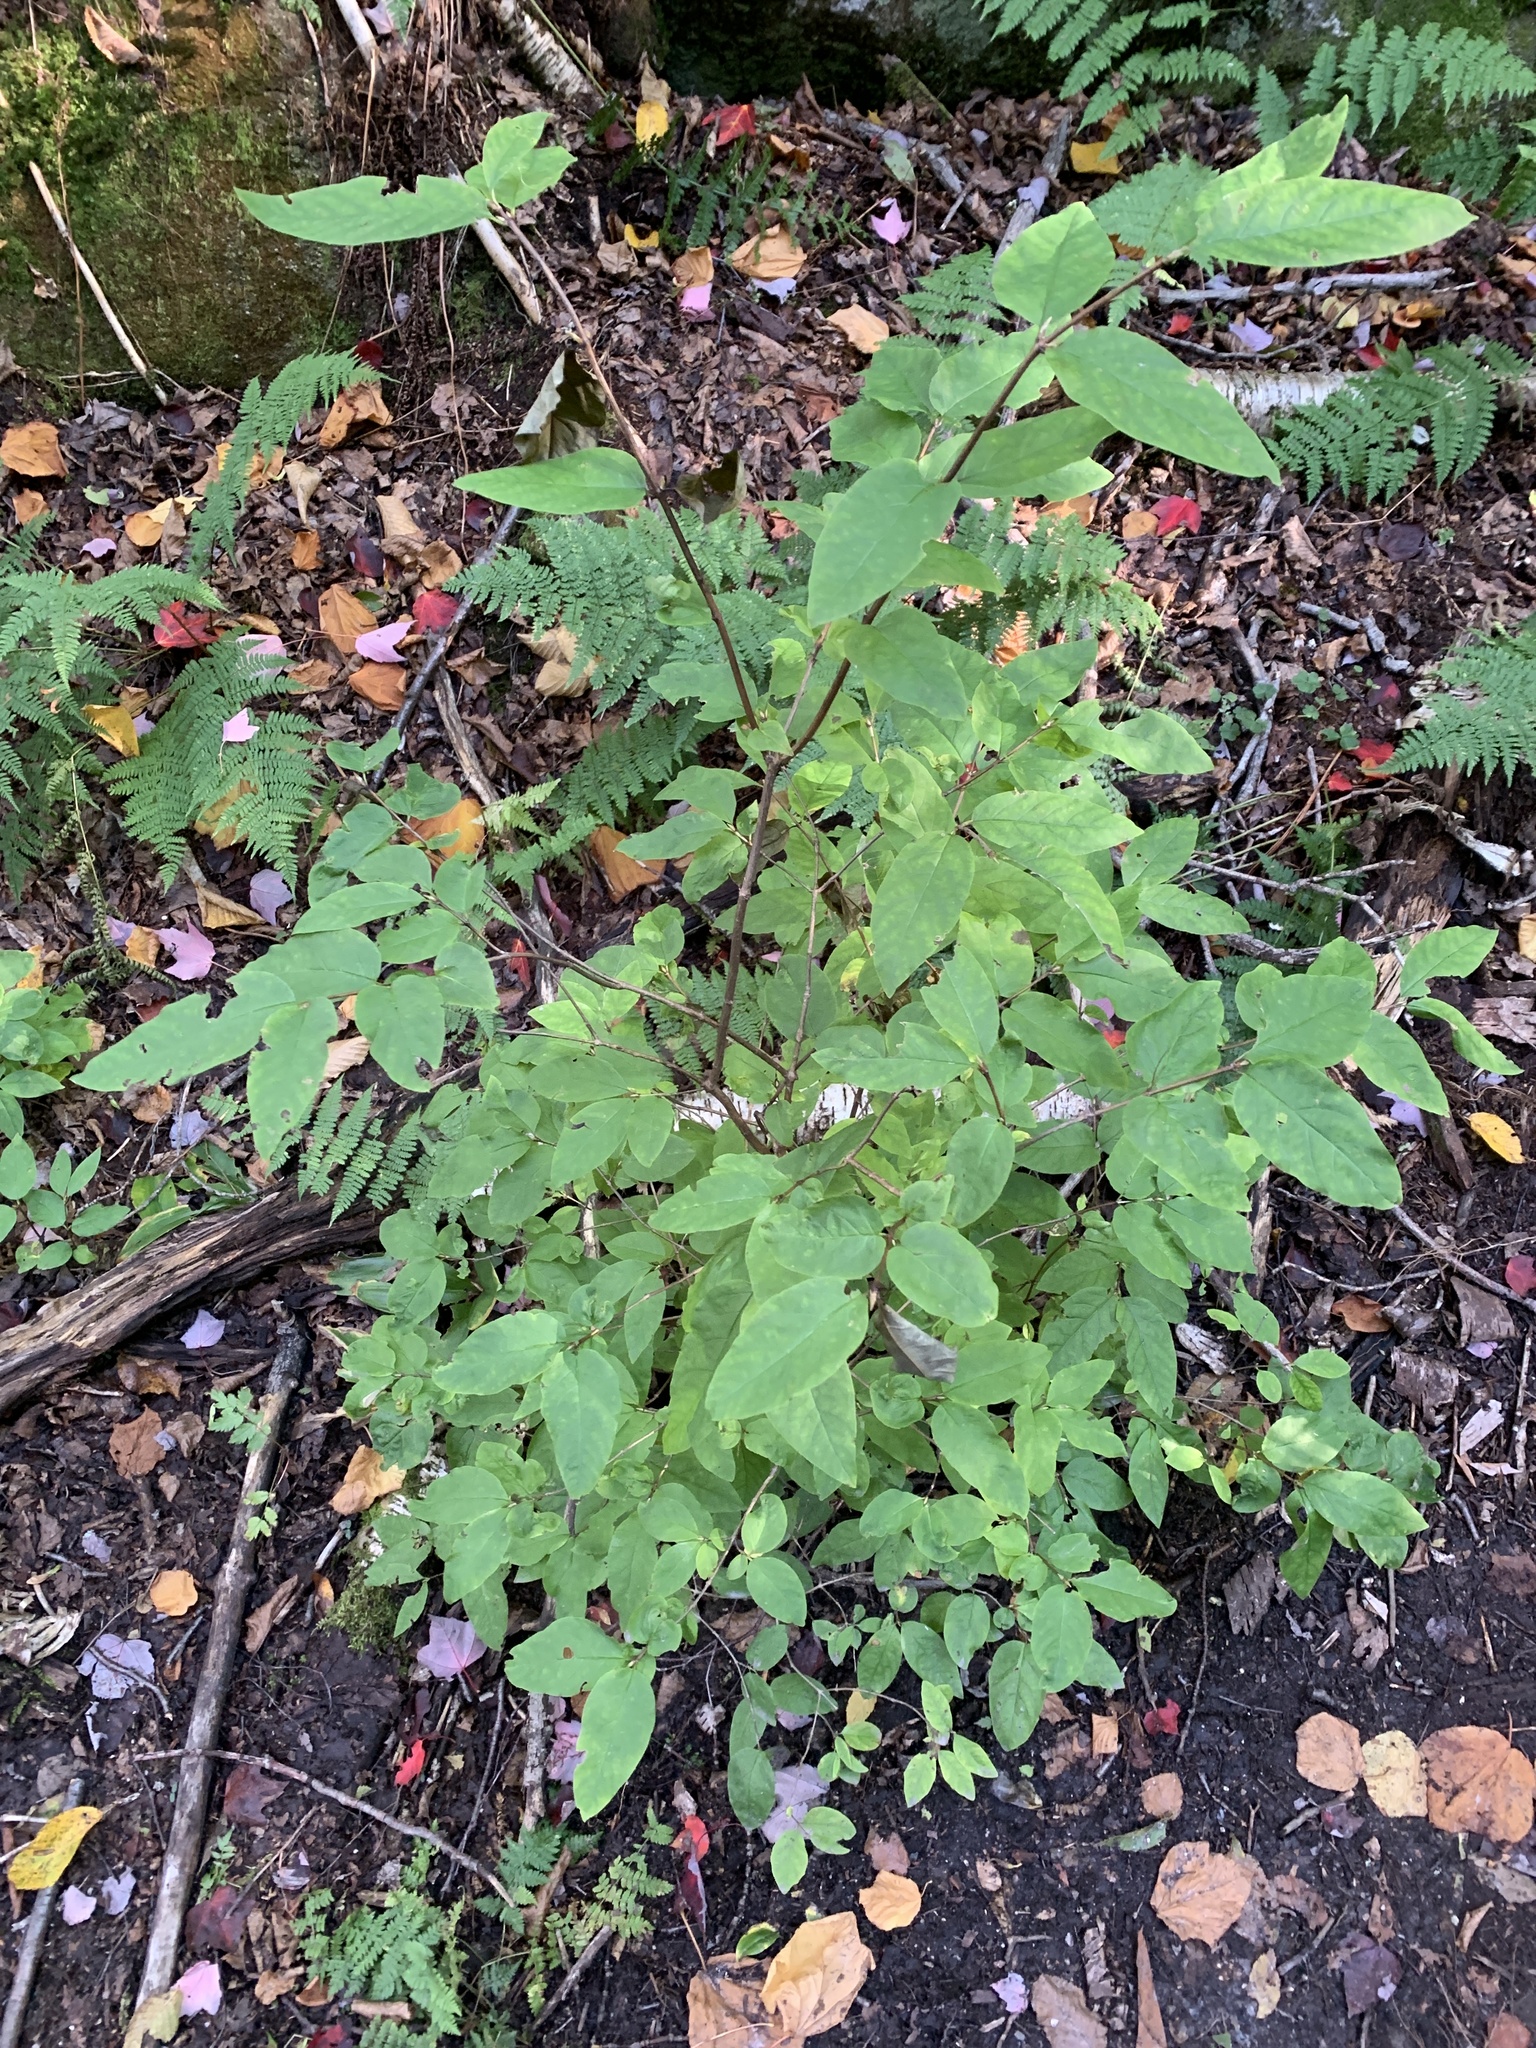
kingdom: Plantae
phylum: Tracheophyta
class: Magnoliopsida
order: Dipsacales
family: Caprifoliaceae
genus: Lonicera
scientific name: Lonicera canadensis
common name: American fly-honeysuckle
